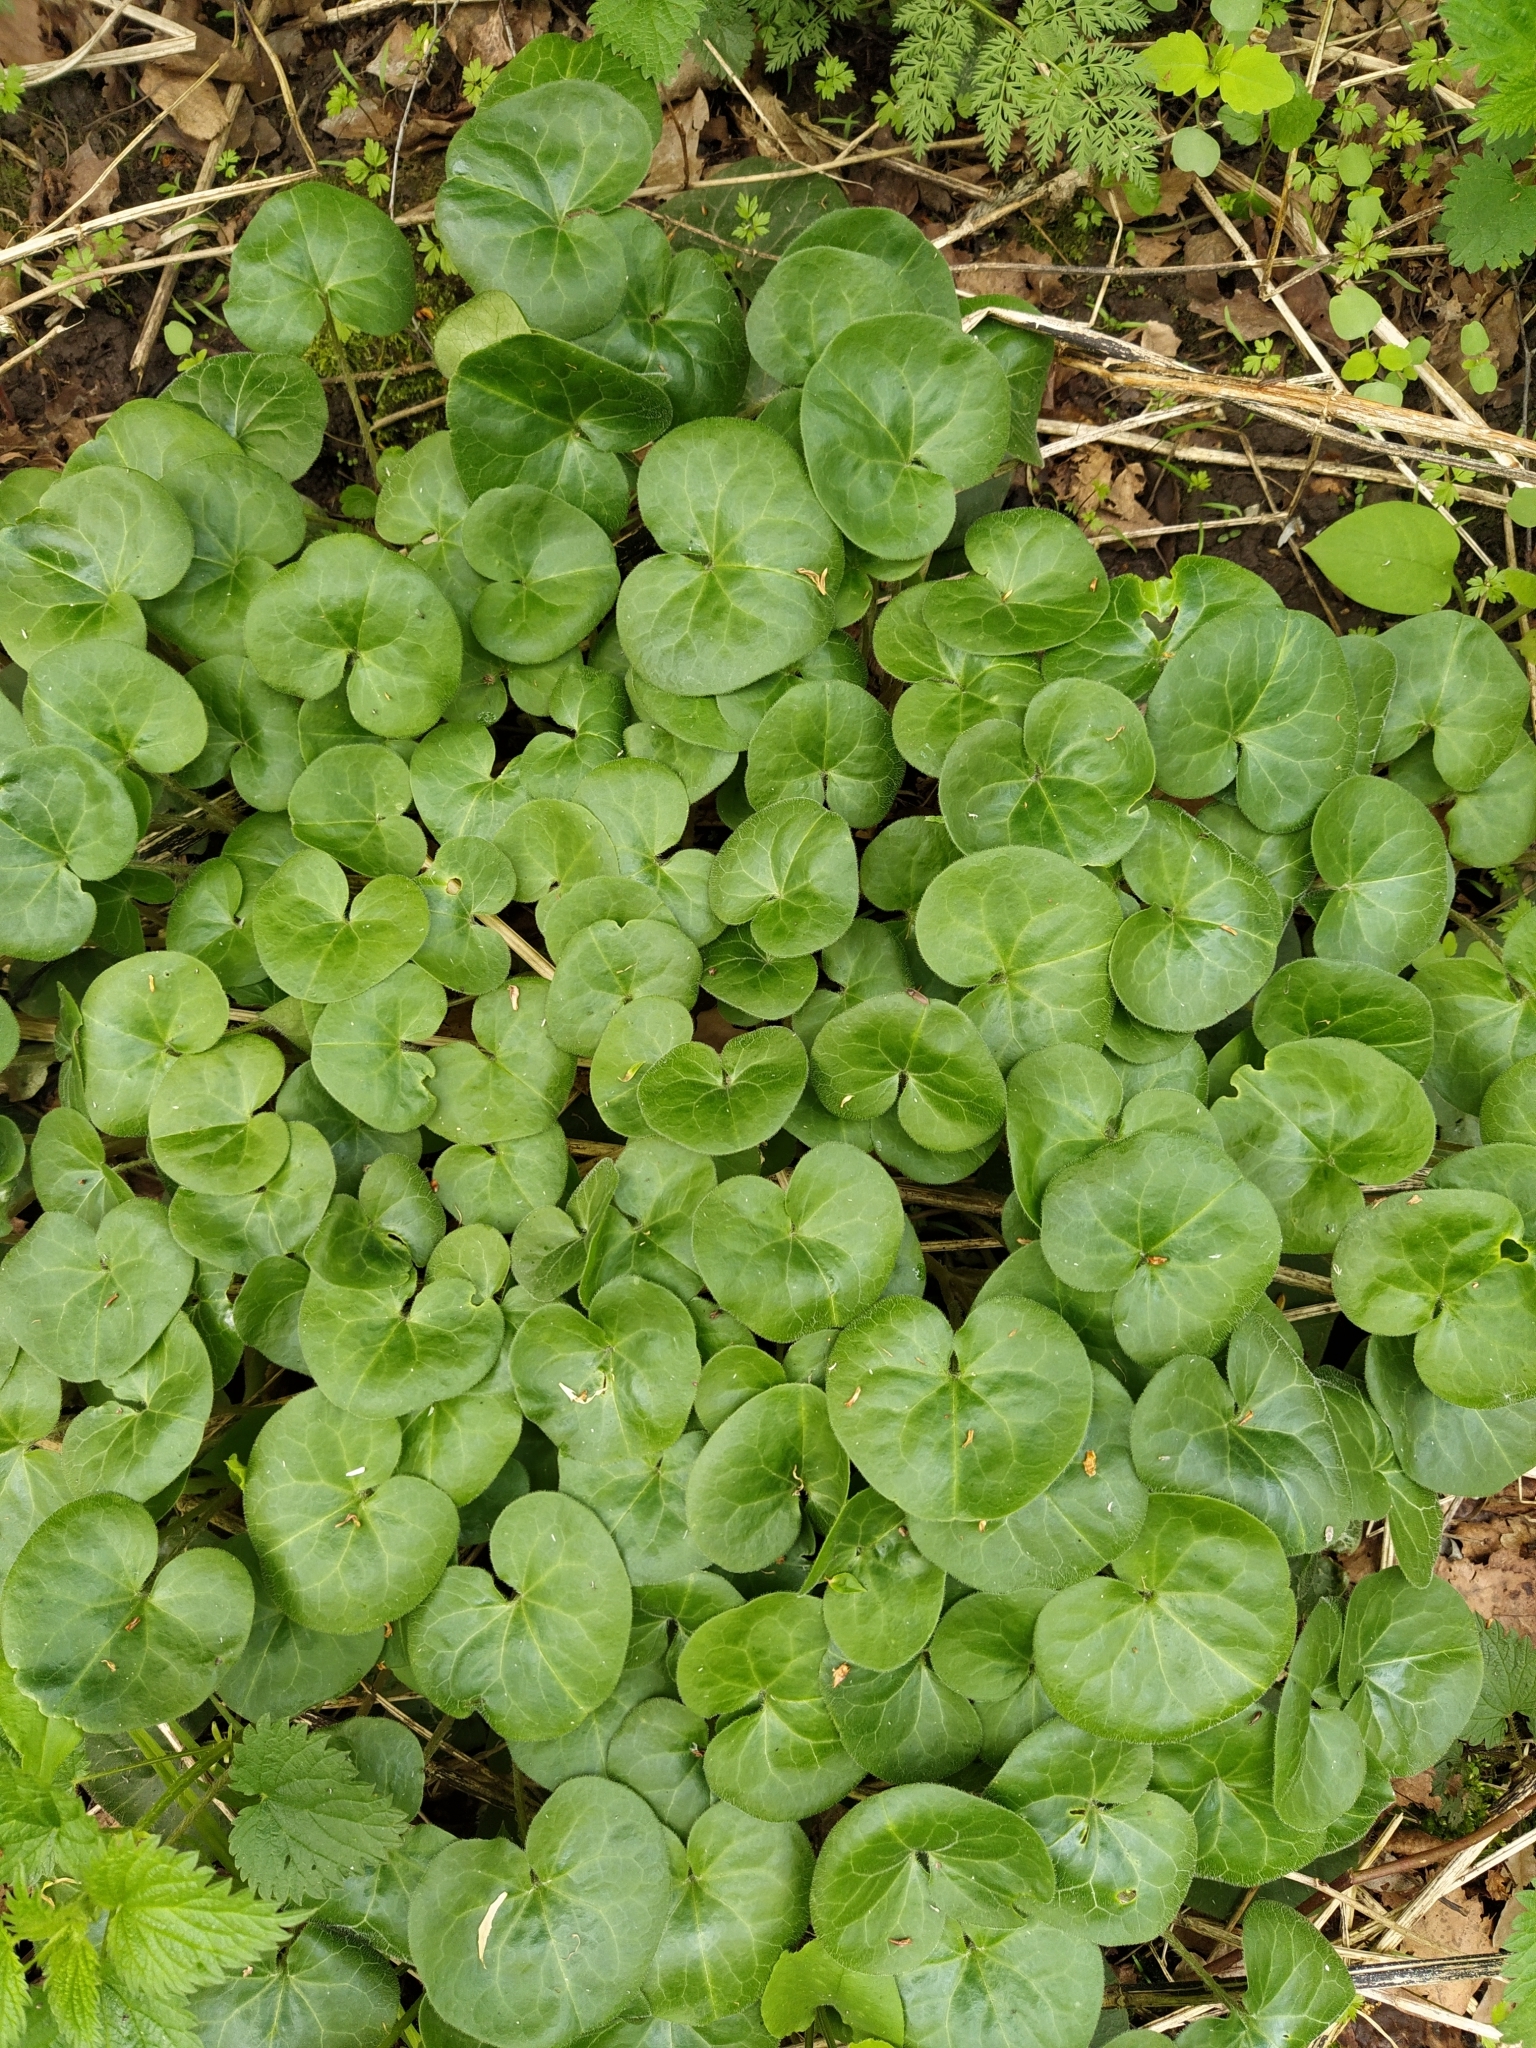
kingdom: Plantae
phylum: Tracheophyta
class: Magnoliopsida
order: Piperales
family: Aristolochiaceae
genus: Asarum
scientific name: Asarum europaeum
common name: Asarabacca
